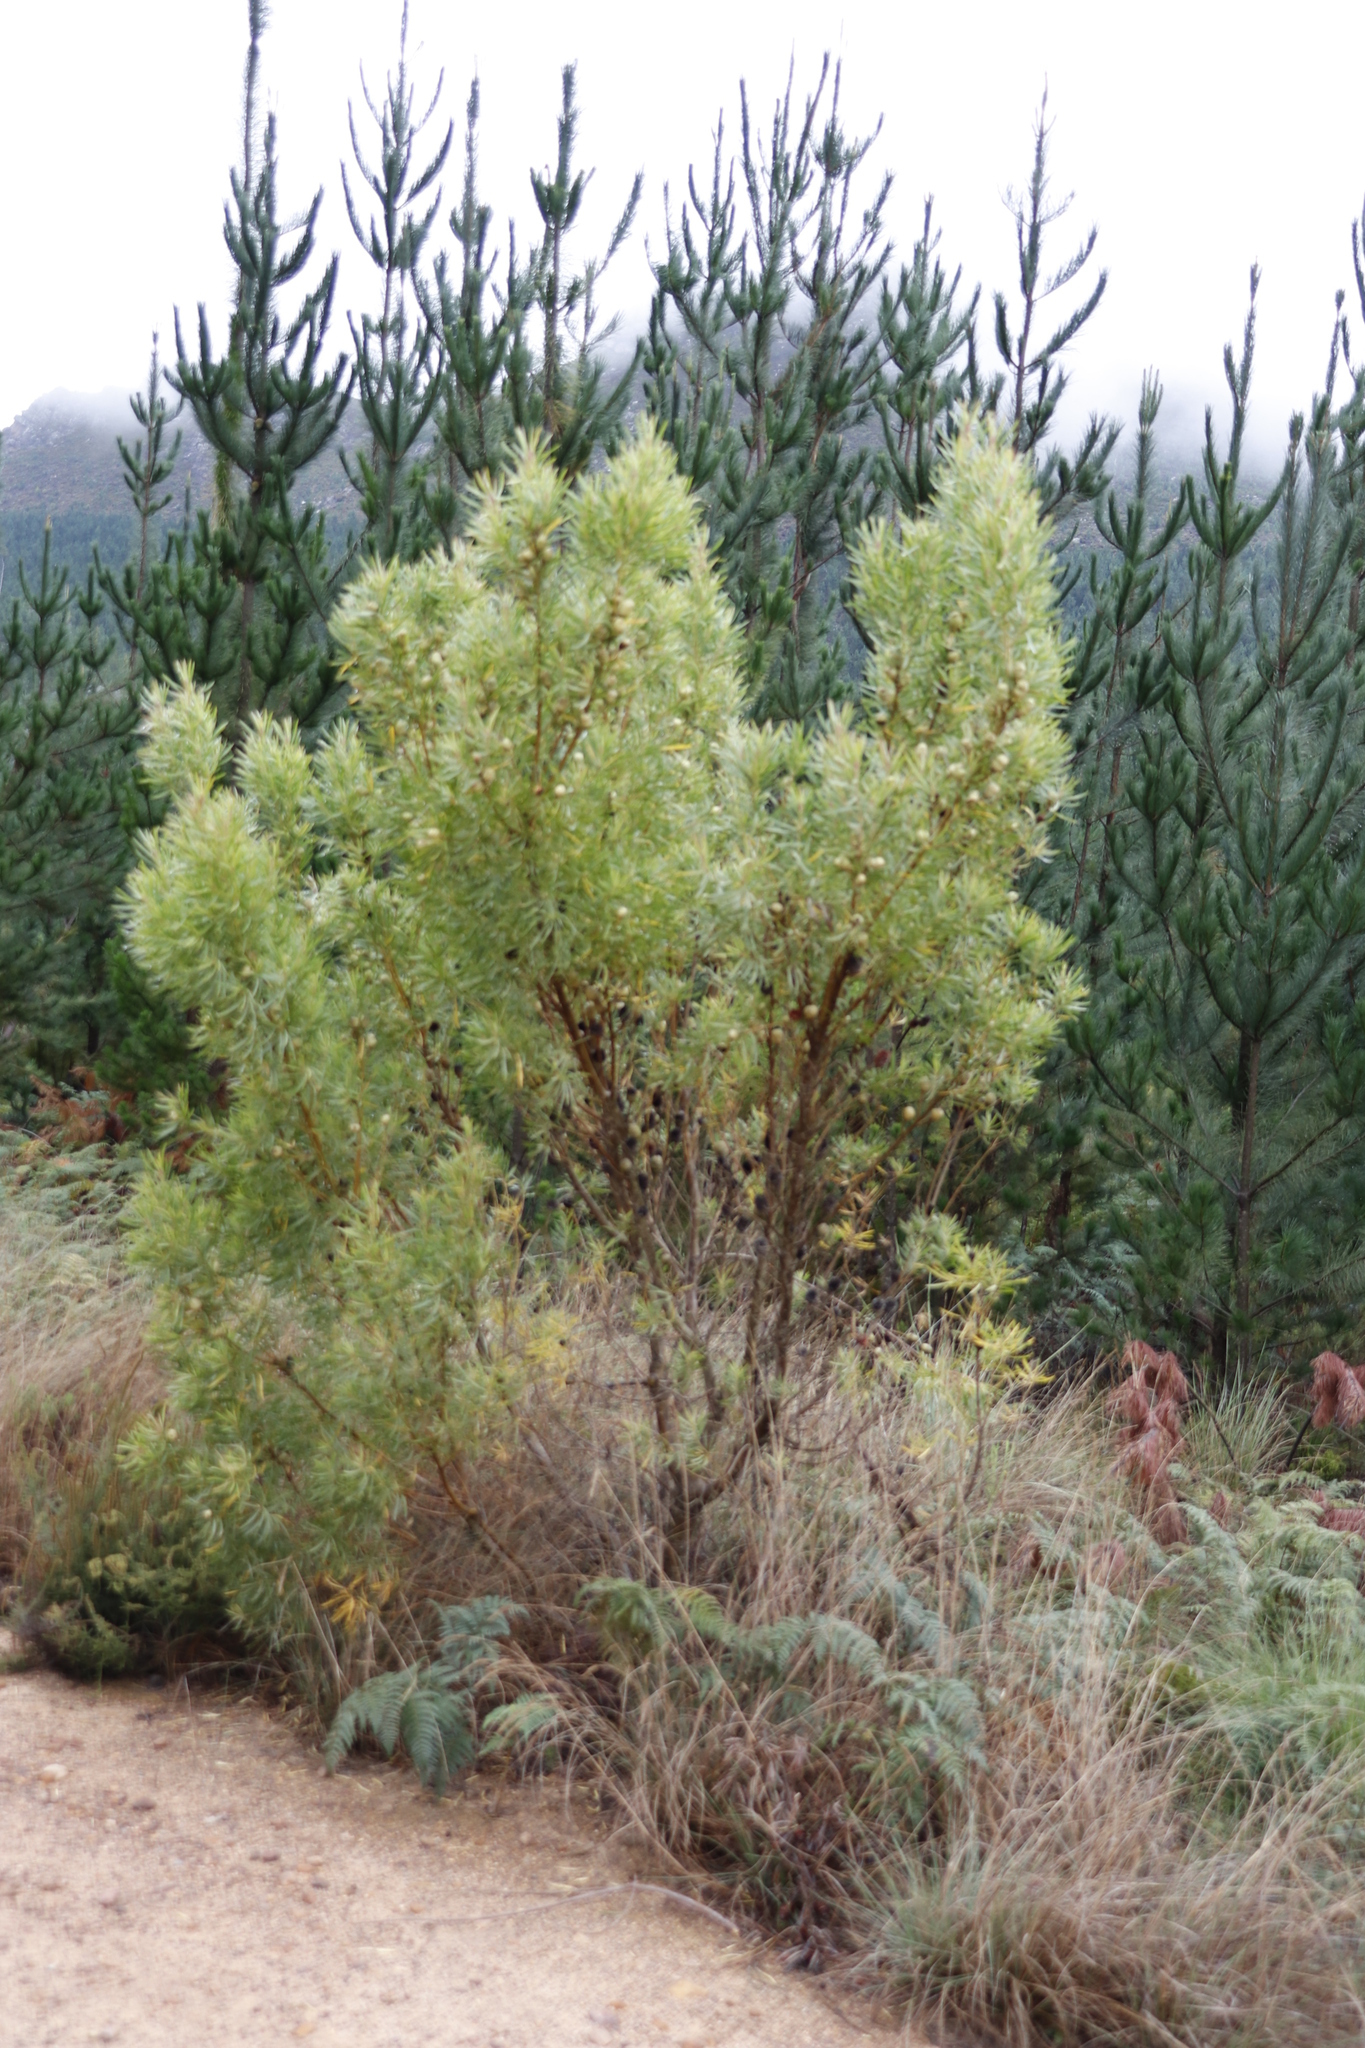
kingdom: Plantae
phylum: Tracheophyta
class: Magnoliopsida
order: Proteales
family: Proteaceae
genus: Leucadendron
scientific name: Leucadendron salicifolium
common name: Common stream conebush
